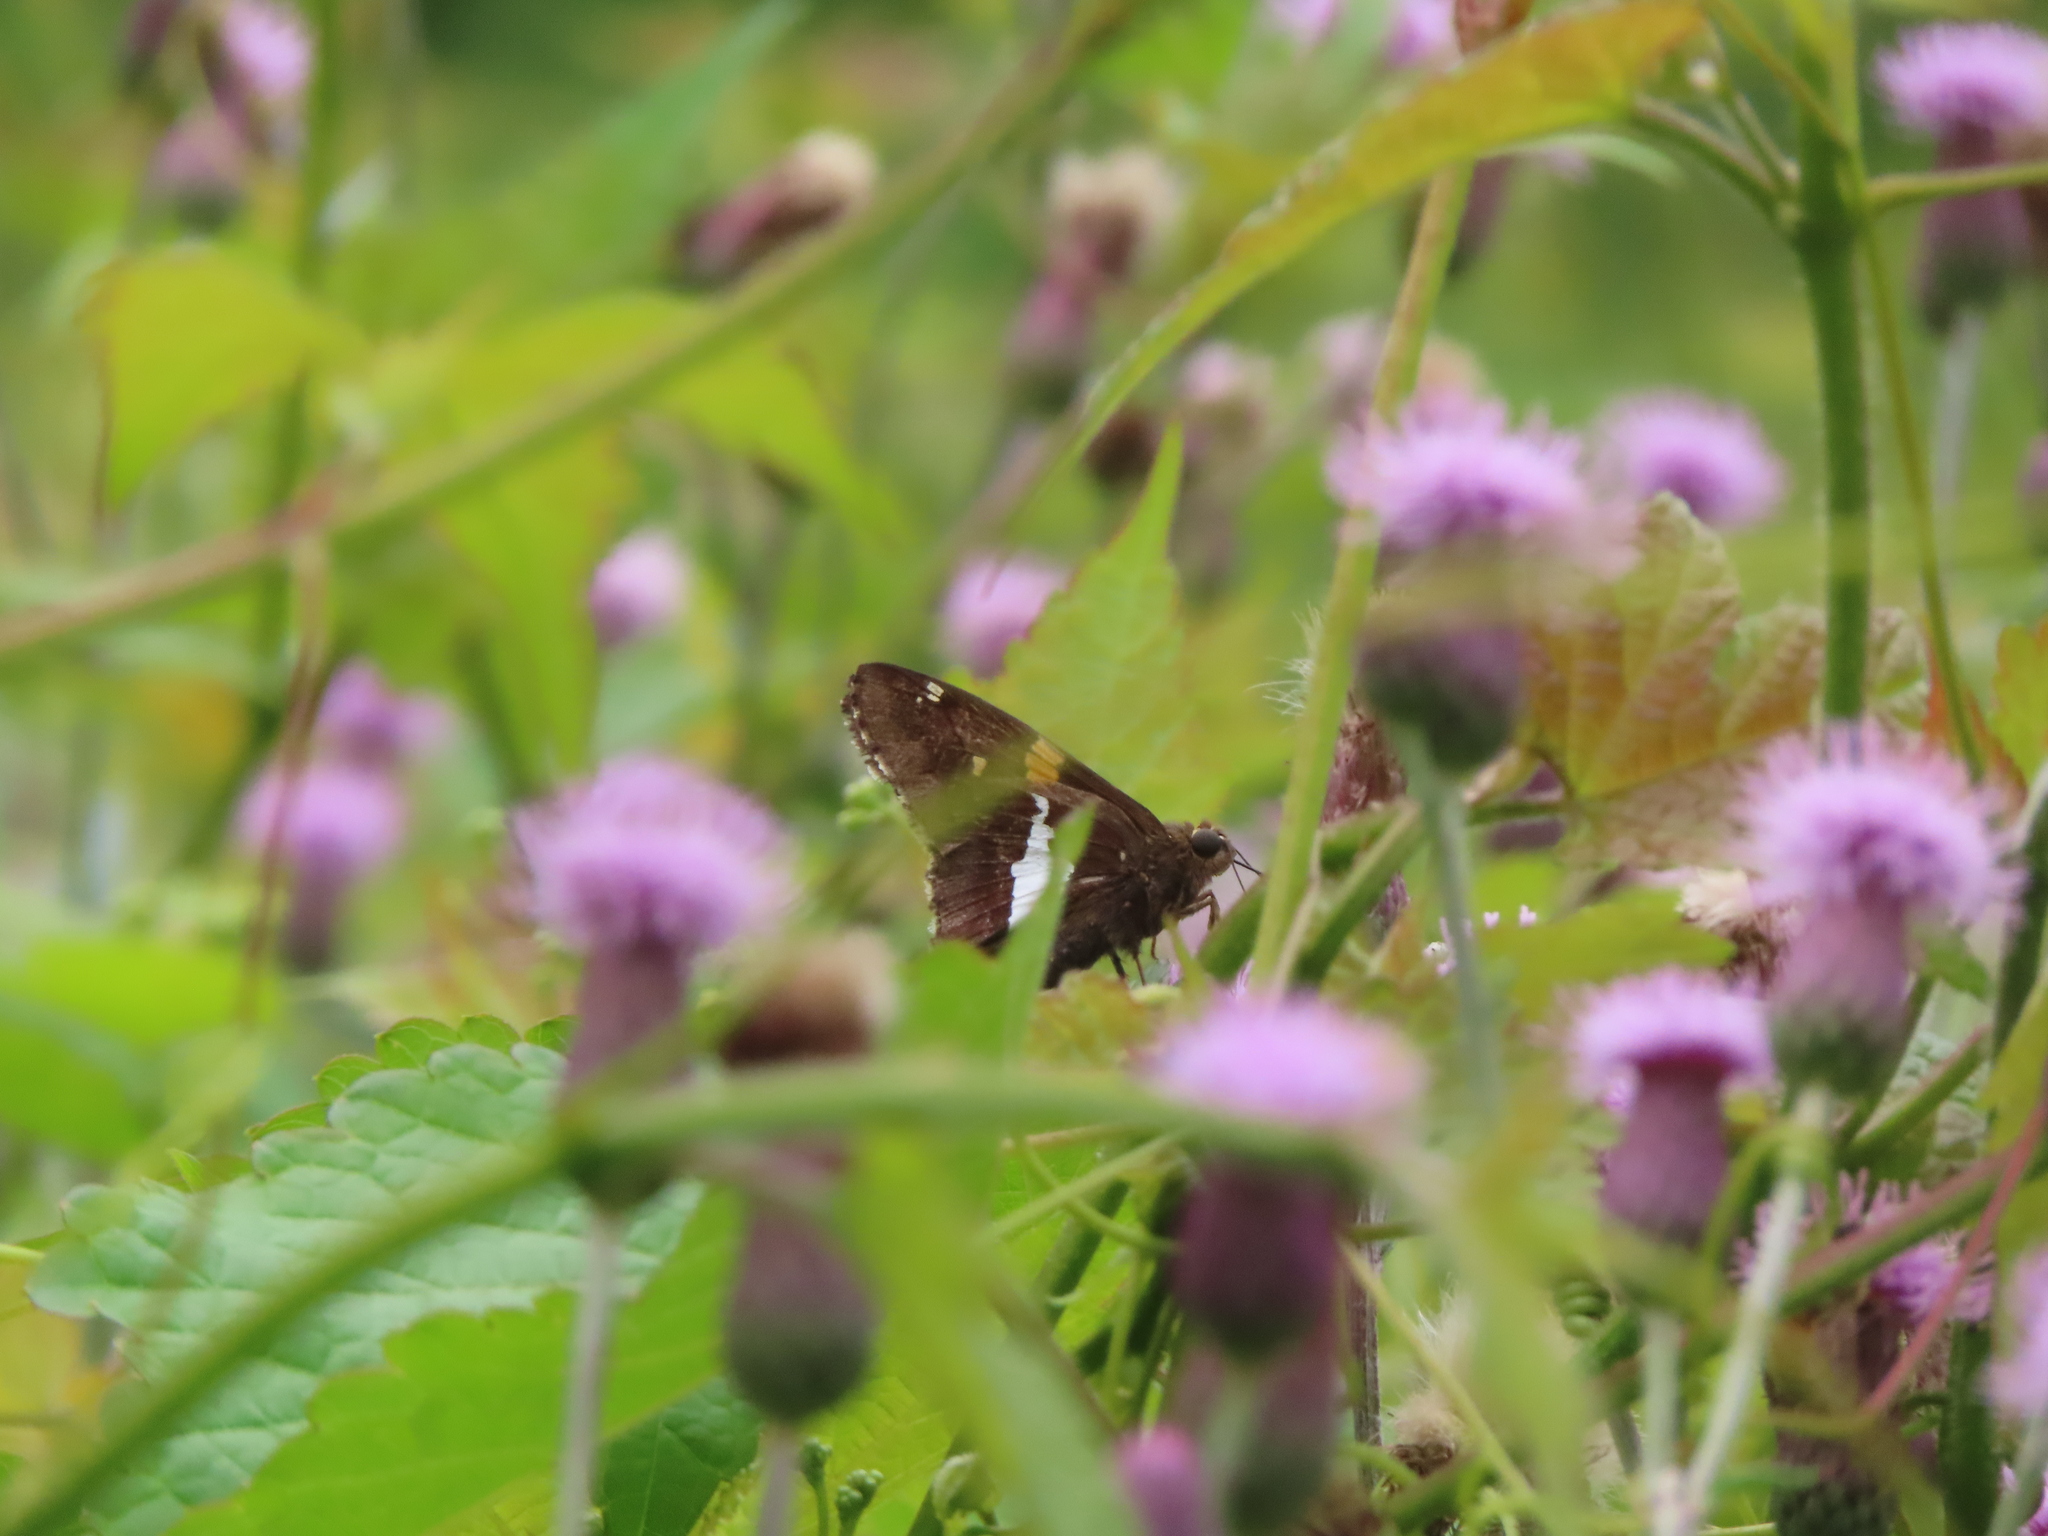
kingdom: Animalia
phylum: Arthropoda
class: Insecta
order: Lepidoptera
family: Hesperiidae
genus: Epargyreus
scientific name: Epargyreus clarus
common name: Silver-spotted skipper
